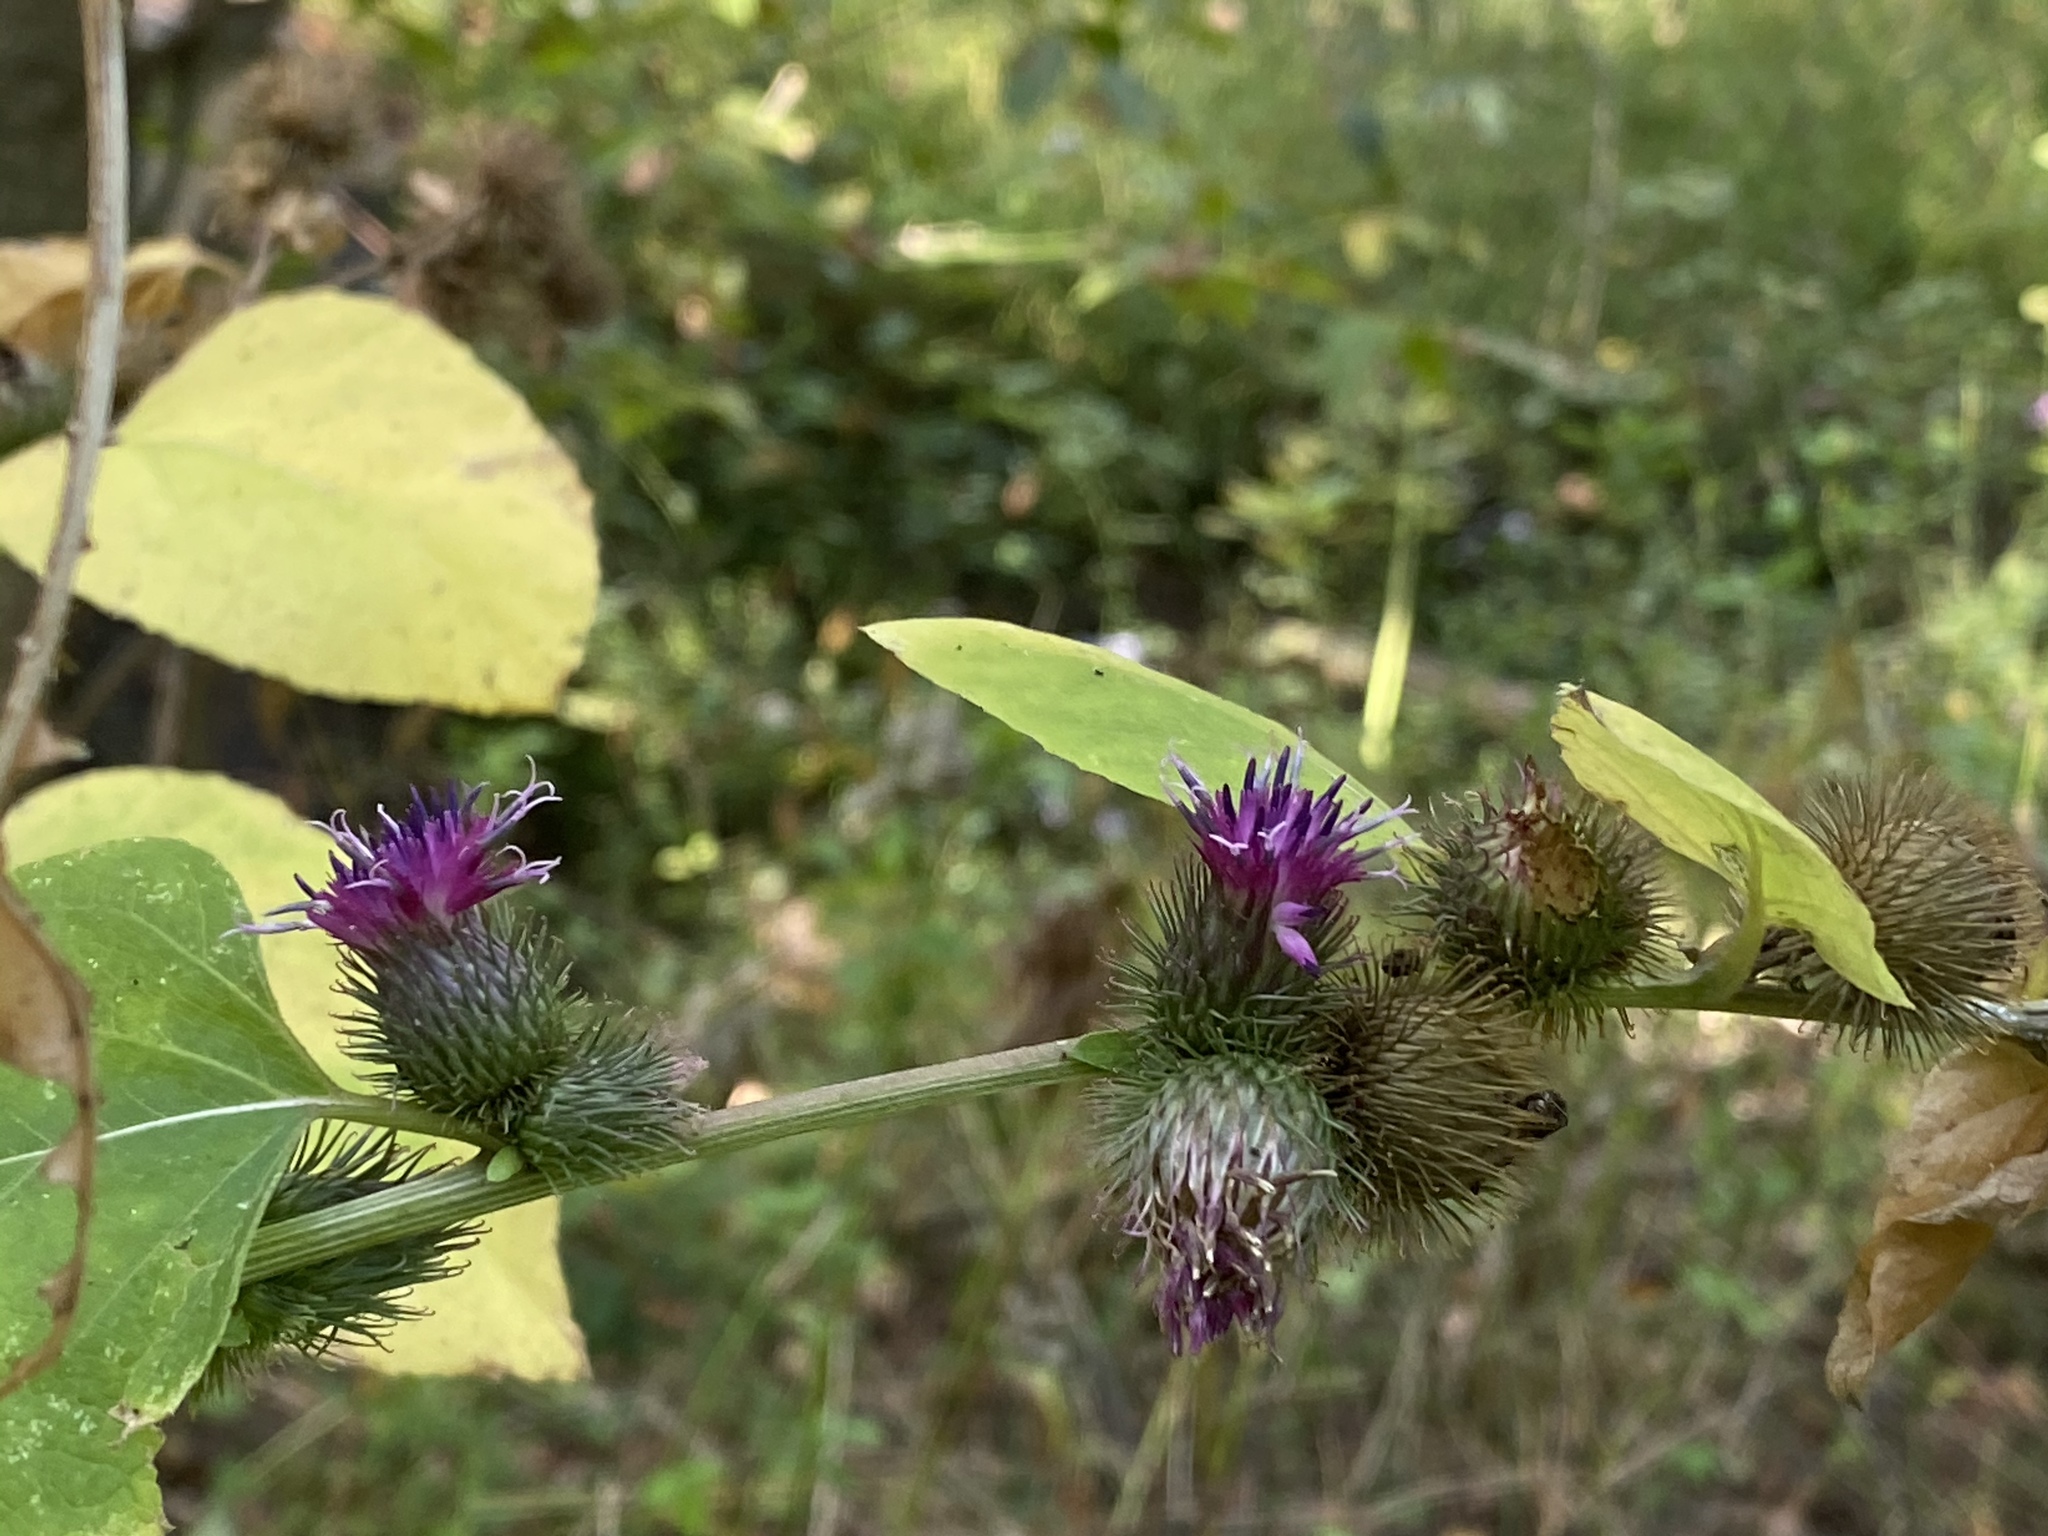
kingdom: Plantae
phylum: Tracheophyta
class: Magnoliopsida
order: Asterales
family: Asteraceae
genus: Arctium
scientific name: Arctium minus
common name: Lesser burdock
